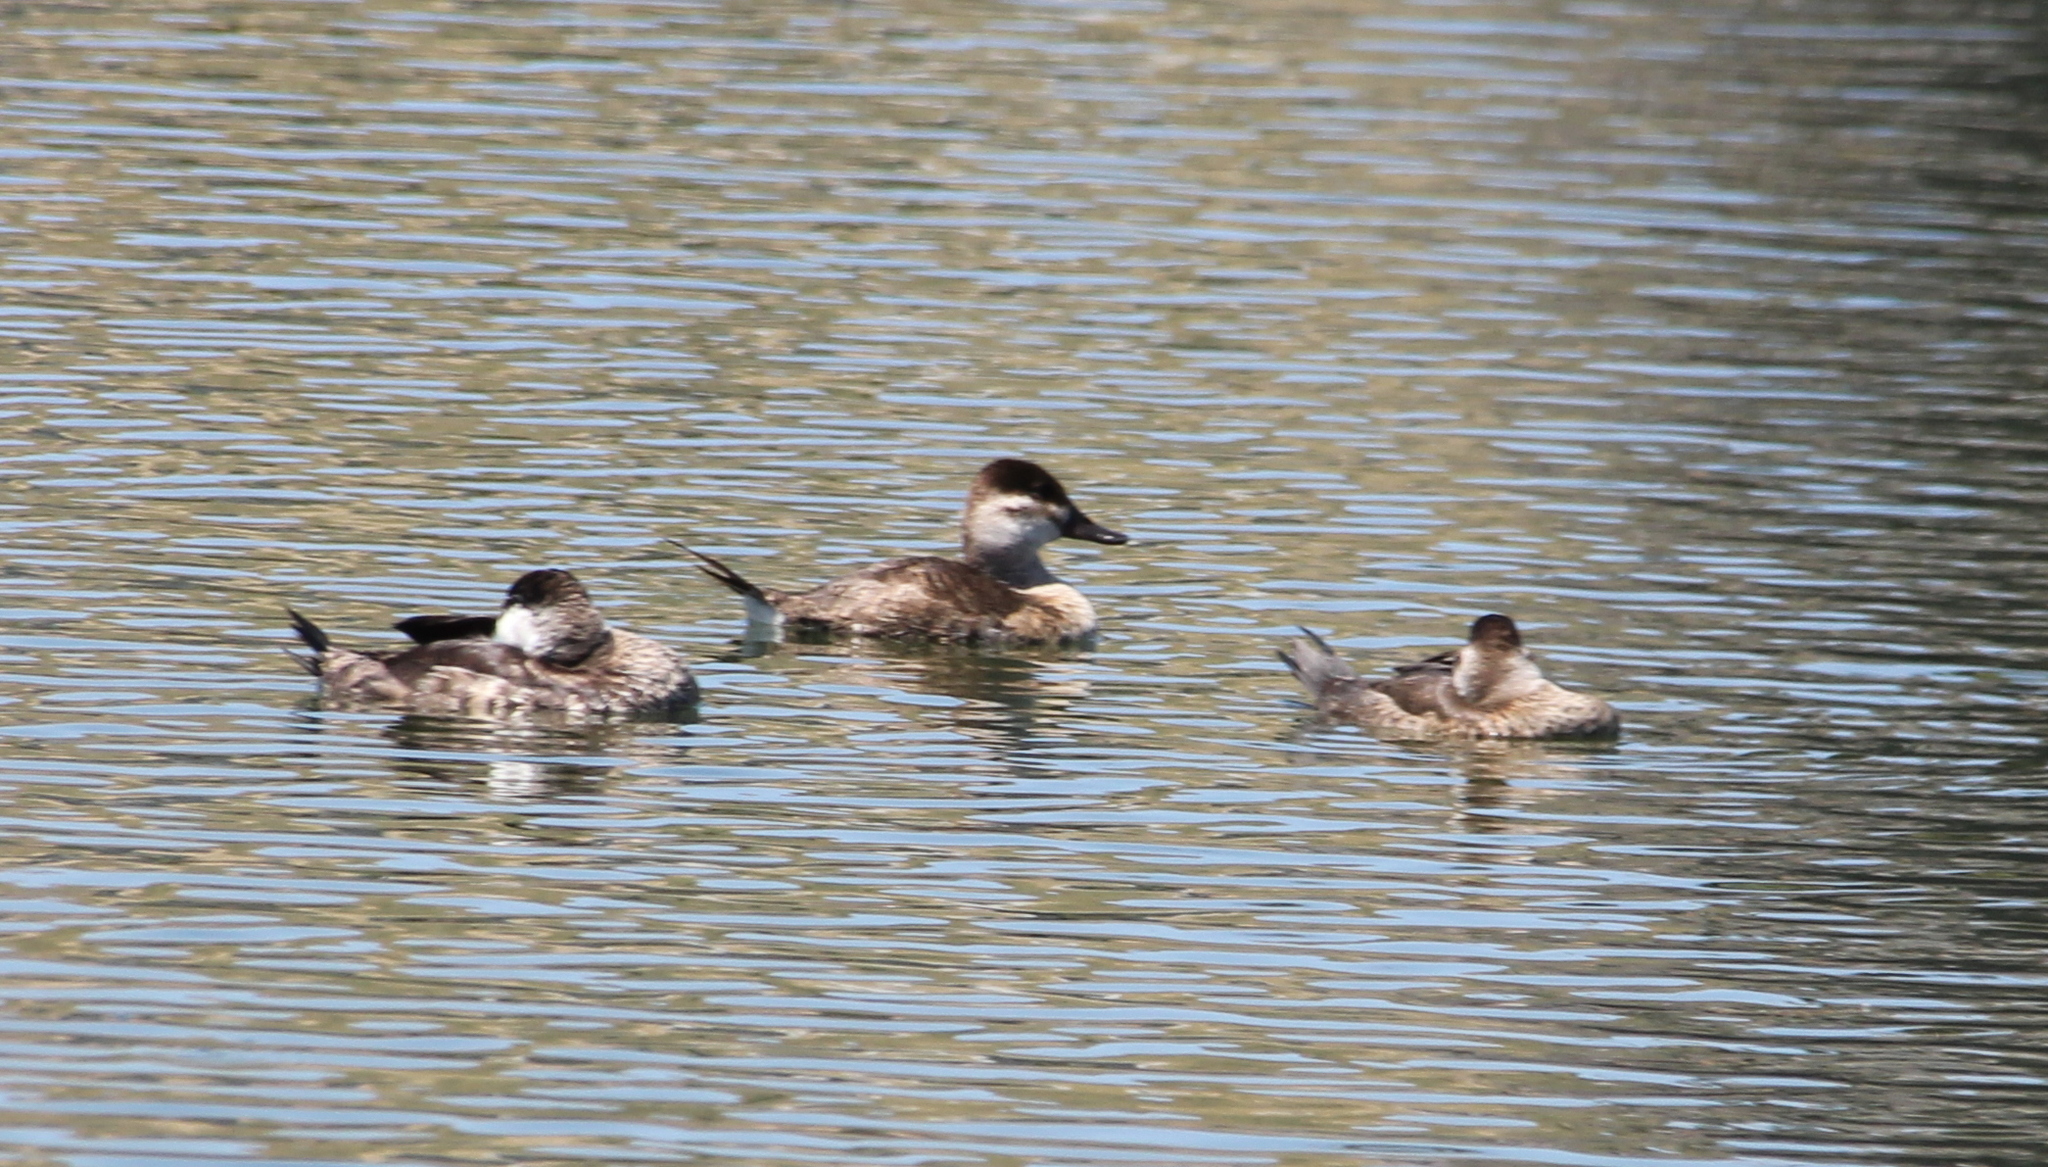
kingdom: Animalia
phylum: Chordata
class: Aves
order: Anseriformes
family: Anatidae
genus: Oxyura
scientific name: Oxyura jamaicensis
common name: Ruddy duck
